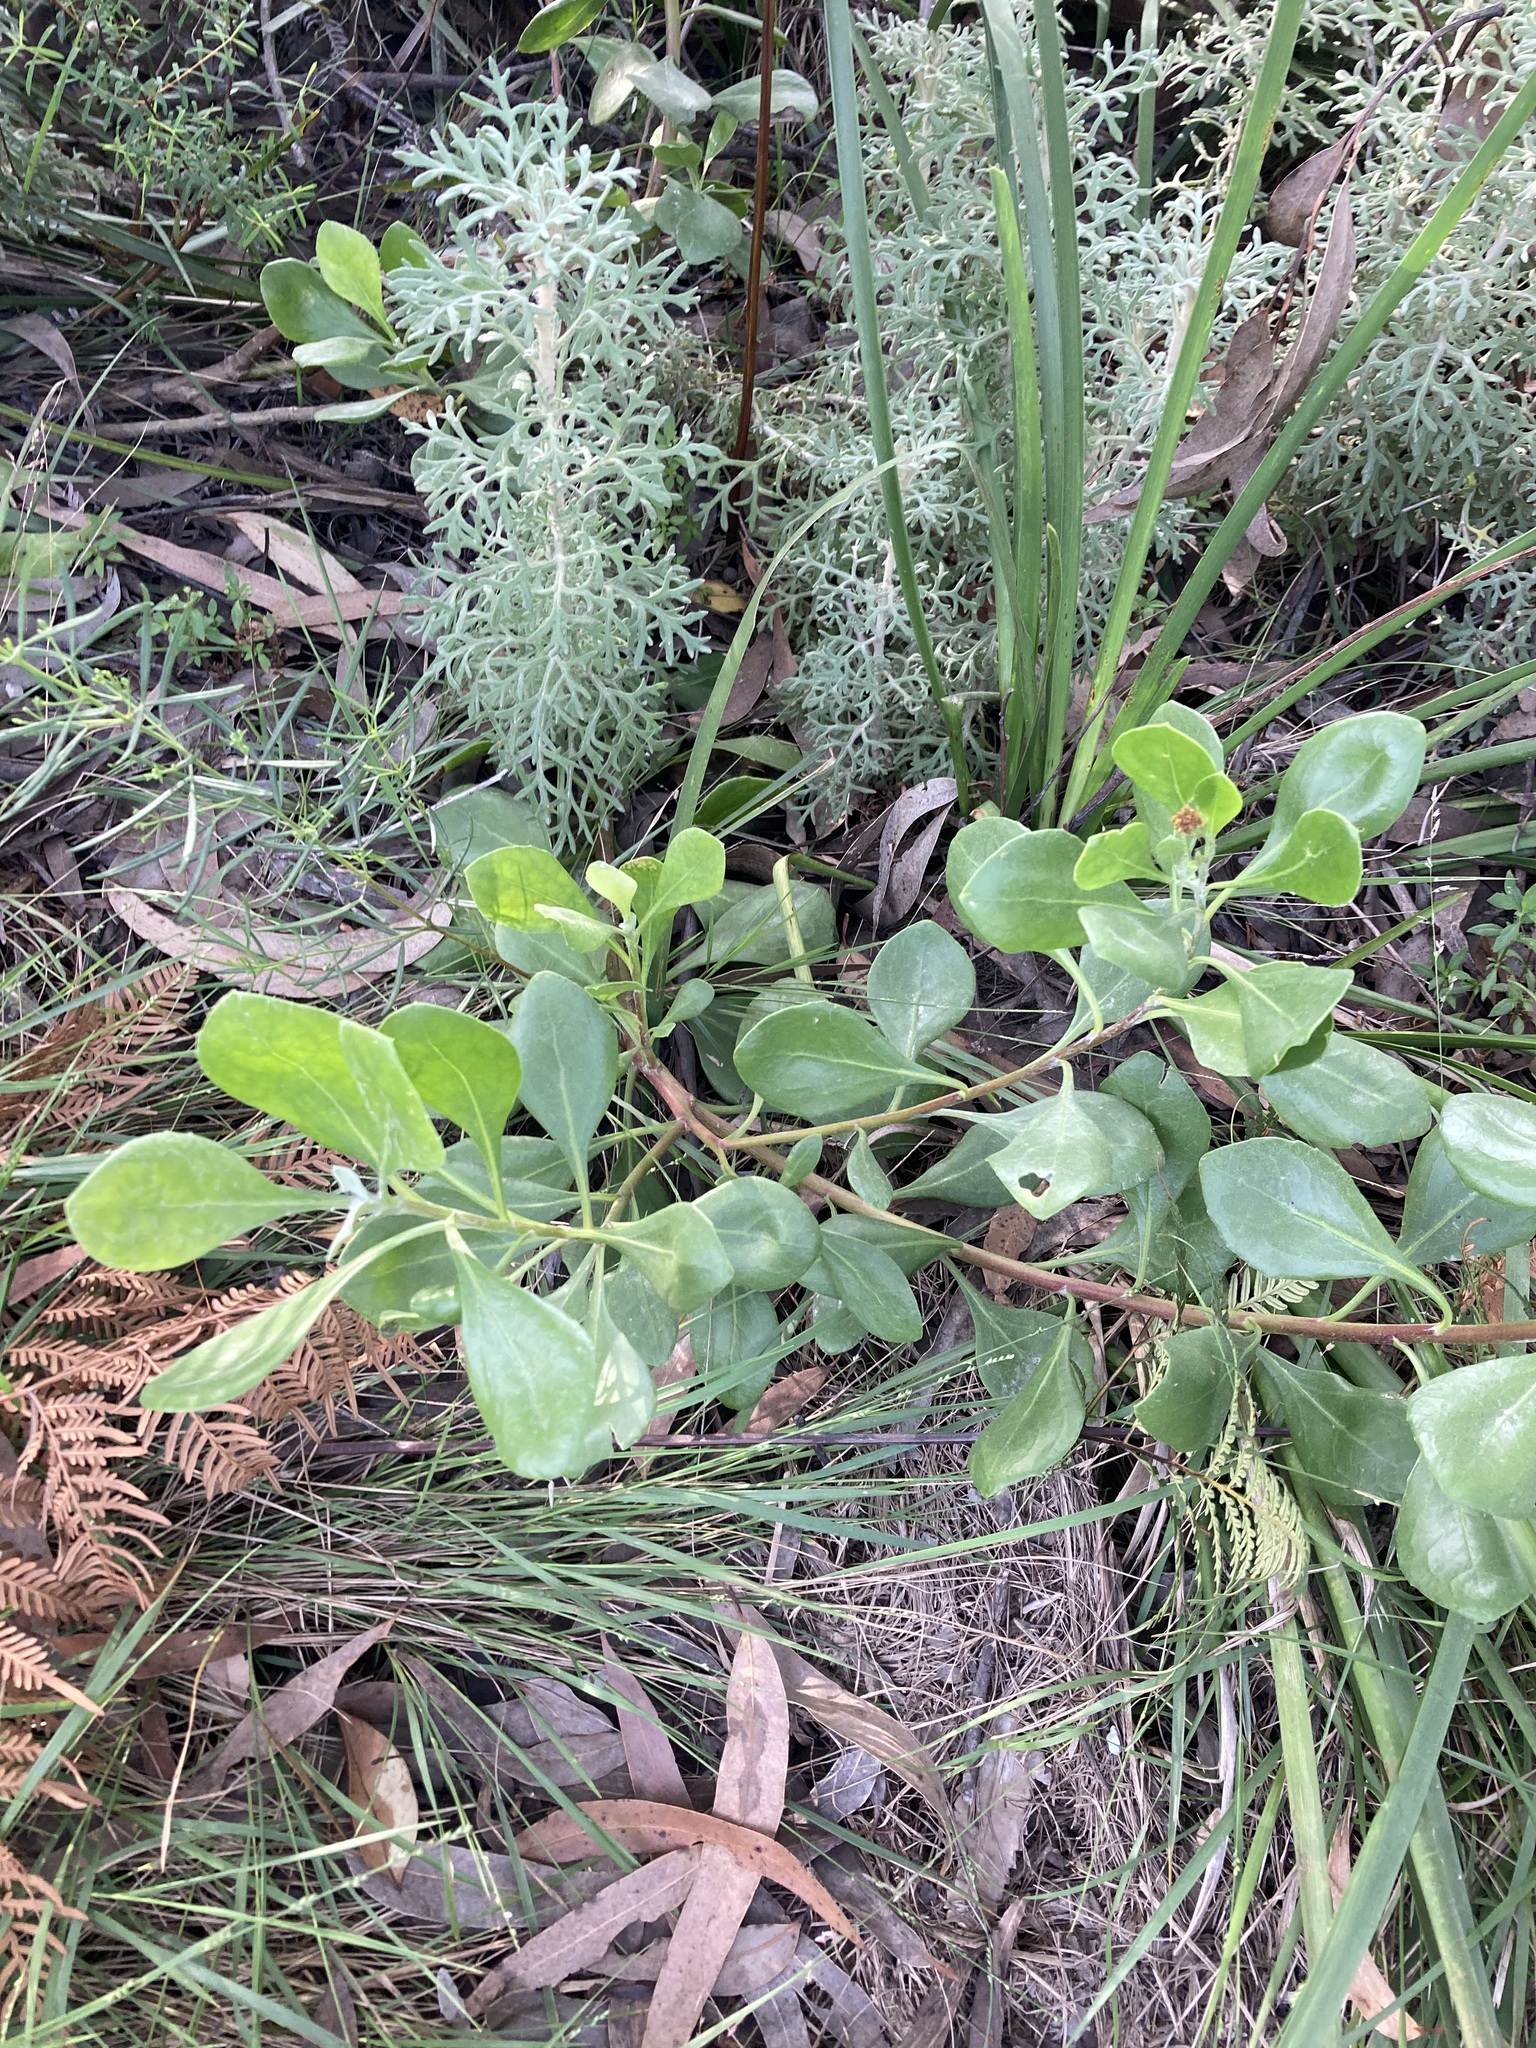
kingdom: Plantae
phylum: Tracheophyta
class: Magnoliopsida
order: Asterales
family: Asteraceae
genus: Osteospermum
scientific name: Osteospermum moniliferum
